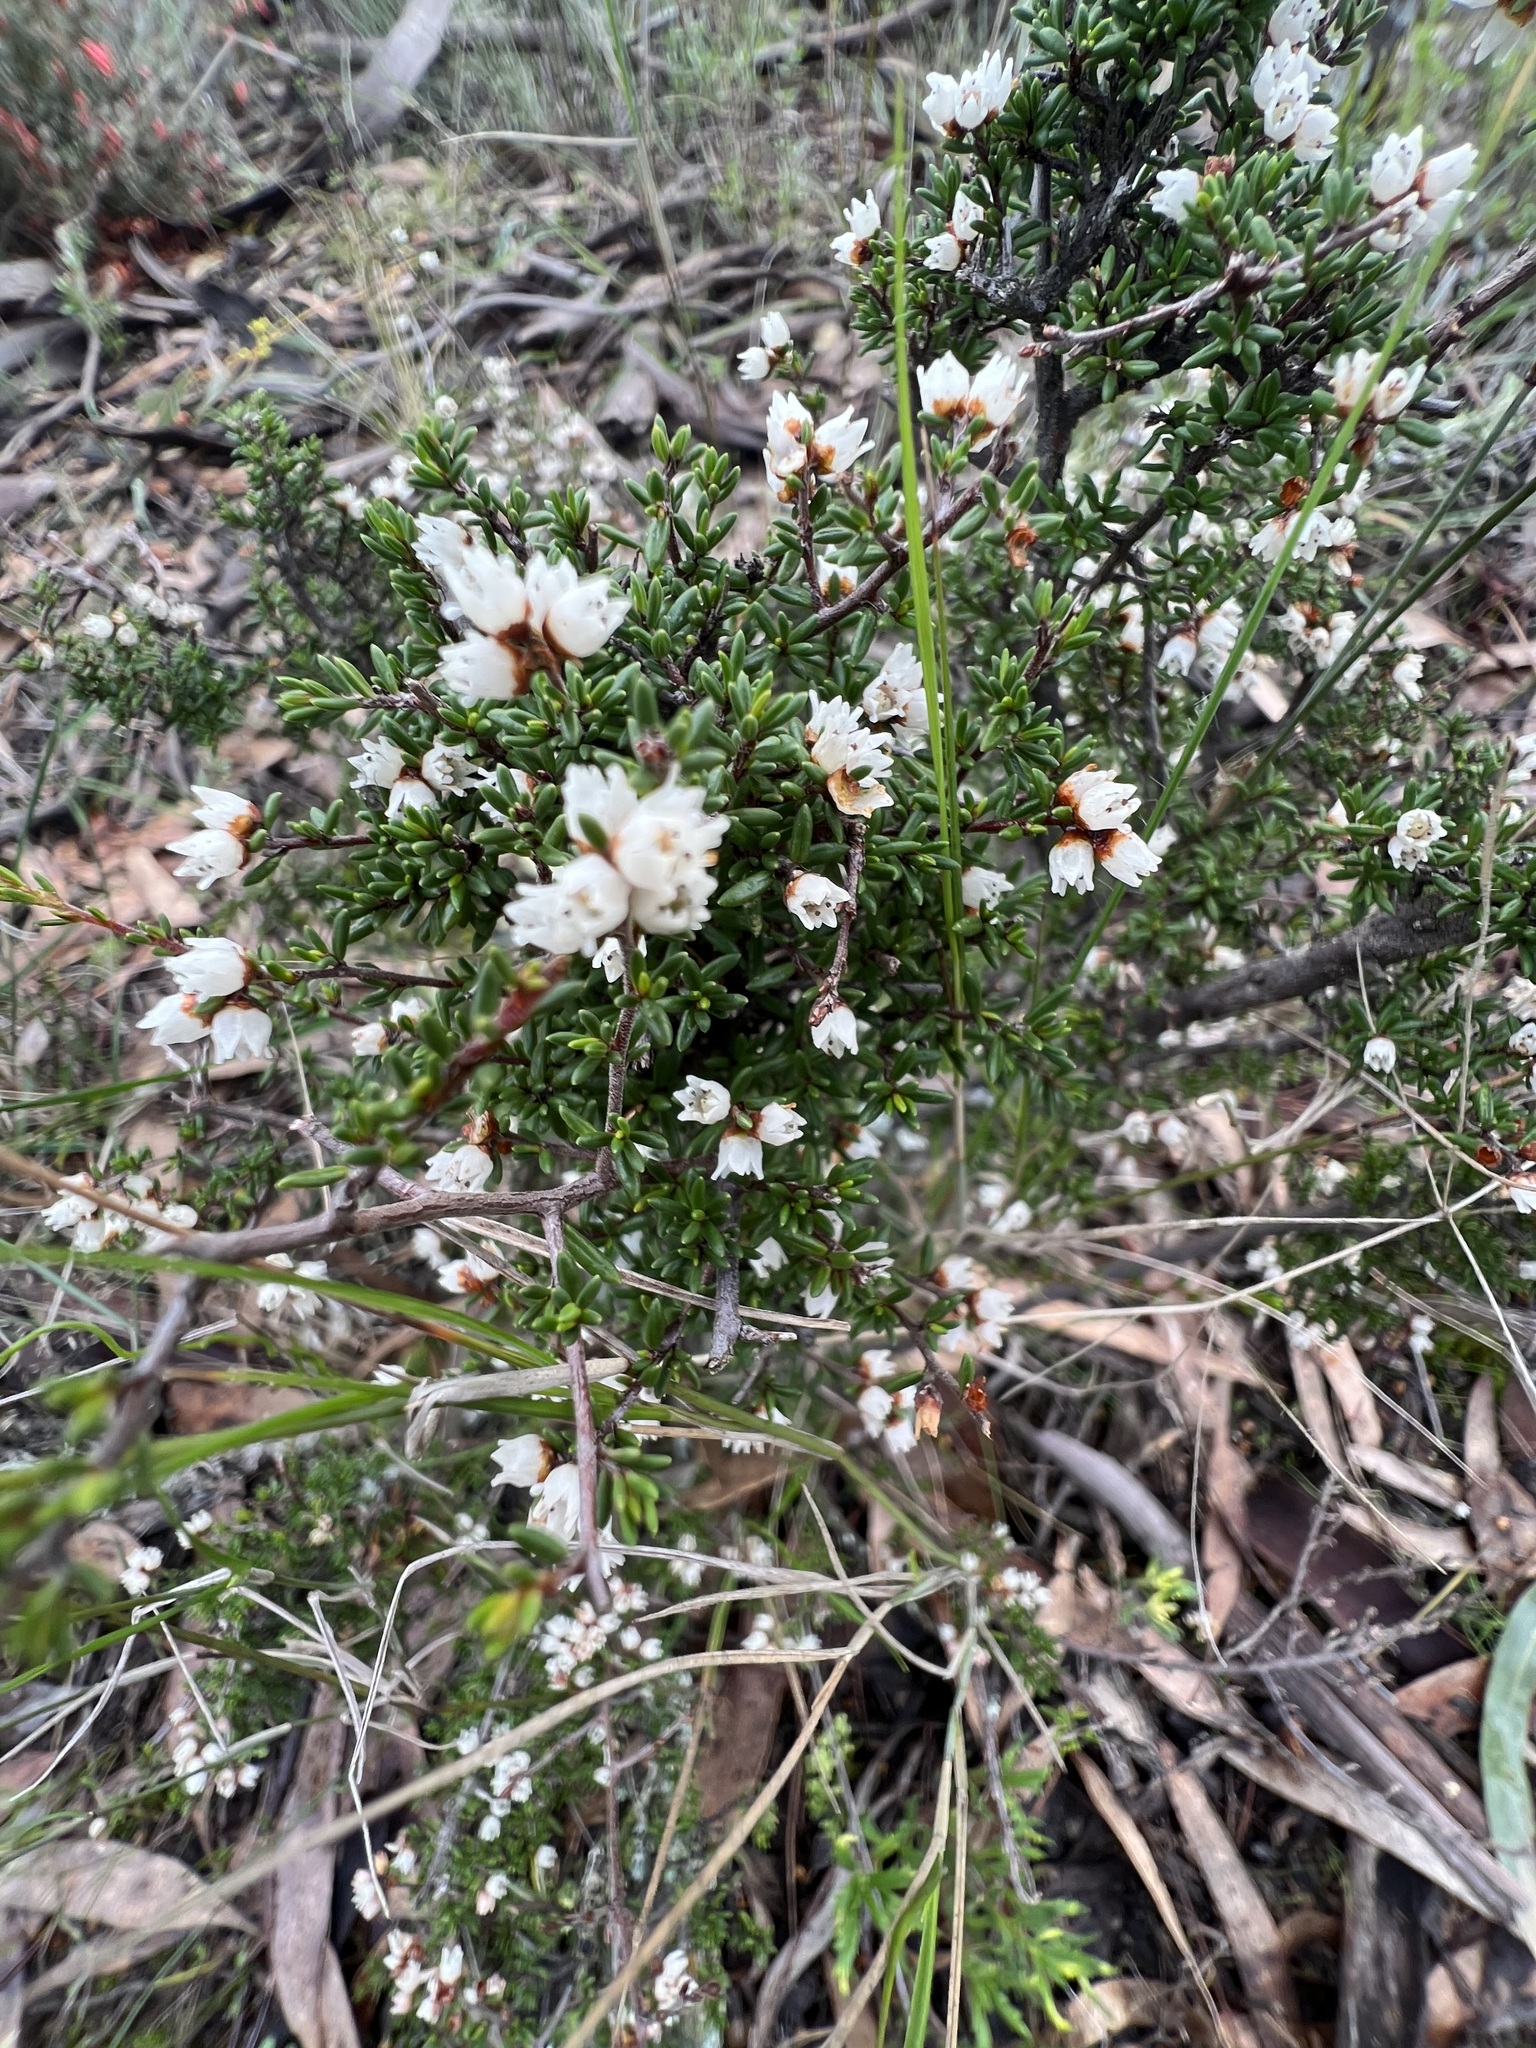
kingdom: Plantae
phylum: Tracheophyta
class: Magnoliopsida
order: Rosales
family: Rhamnaceae
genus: Cryptandra
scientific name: Cryptandra tomentosa
